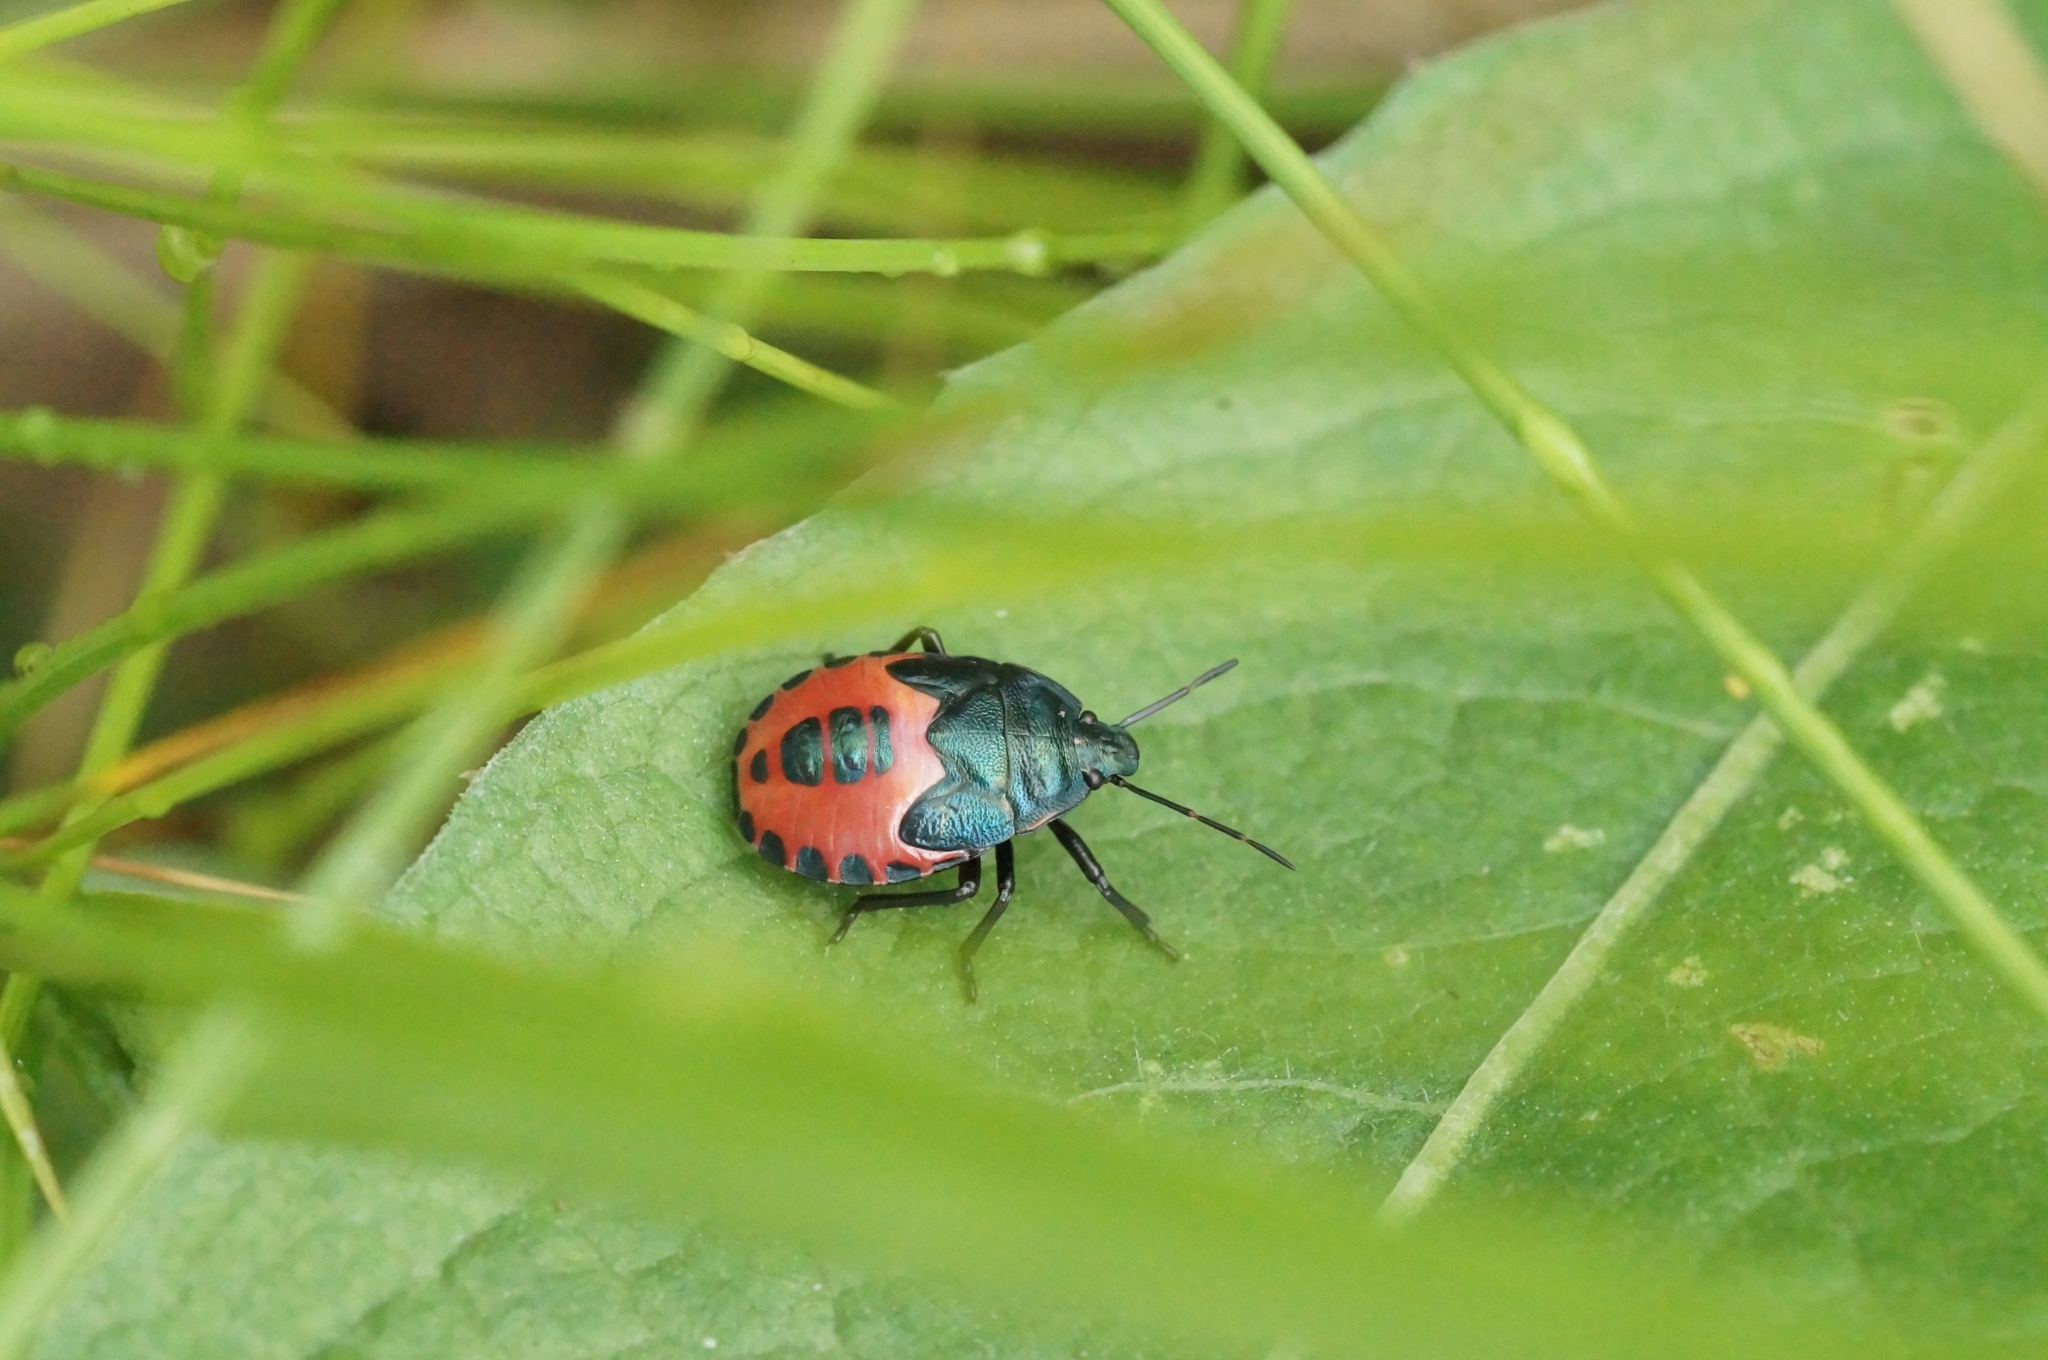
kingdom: Animalia
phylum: Arthropoda
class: Insecta
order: Hemiptera
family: Pentatomidae
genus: Jalla
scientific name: Jalla dumosa
